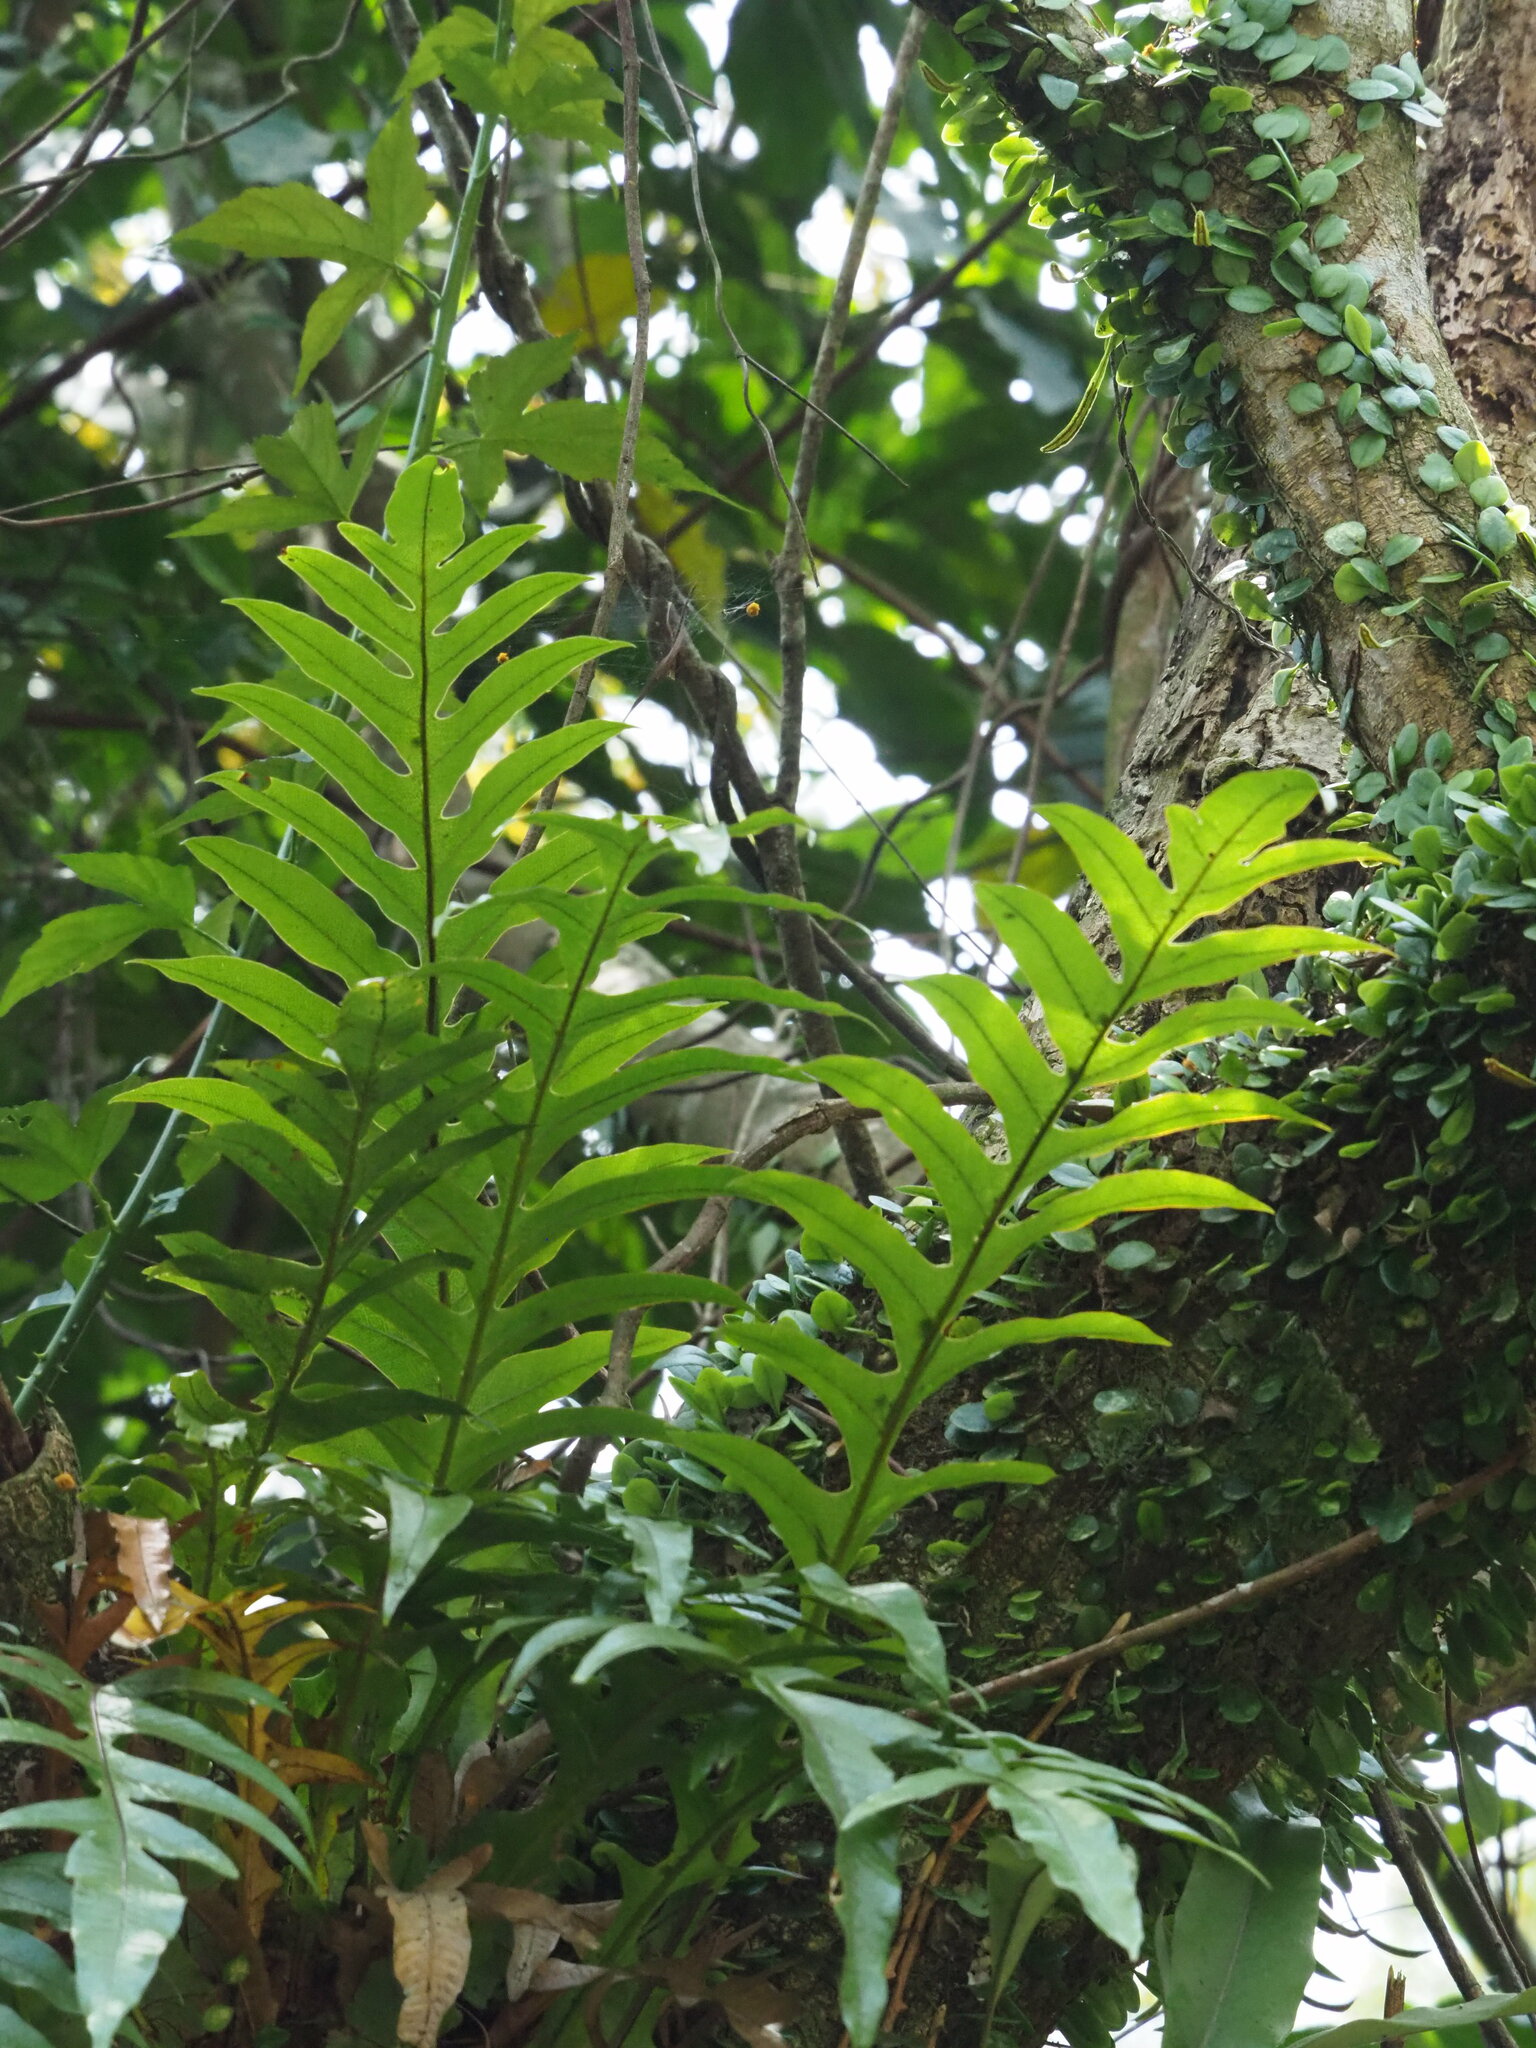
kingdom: Plantae
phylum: Tracheophyta
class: Polypodiopsida
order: Polypodiales
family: Polypodiaceae
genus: Drynaria
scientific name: Drynaria coronans
